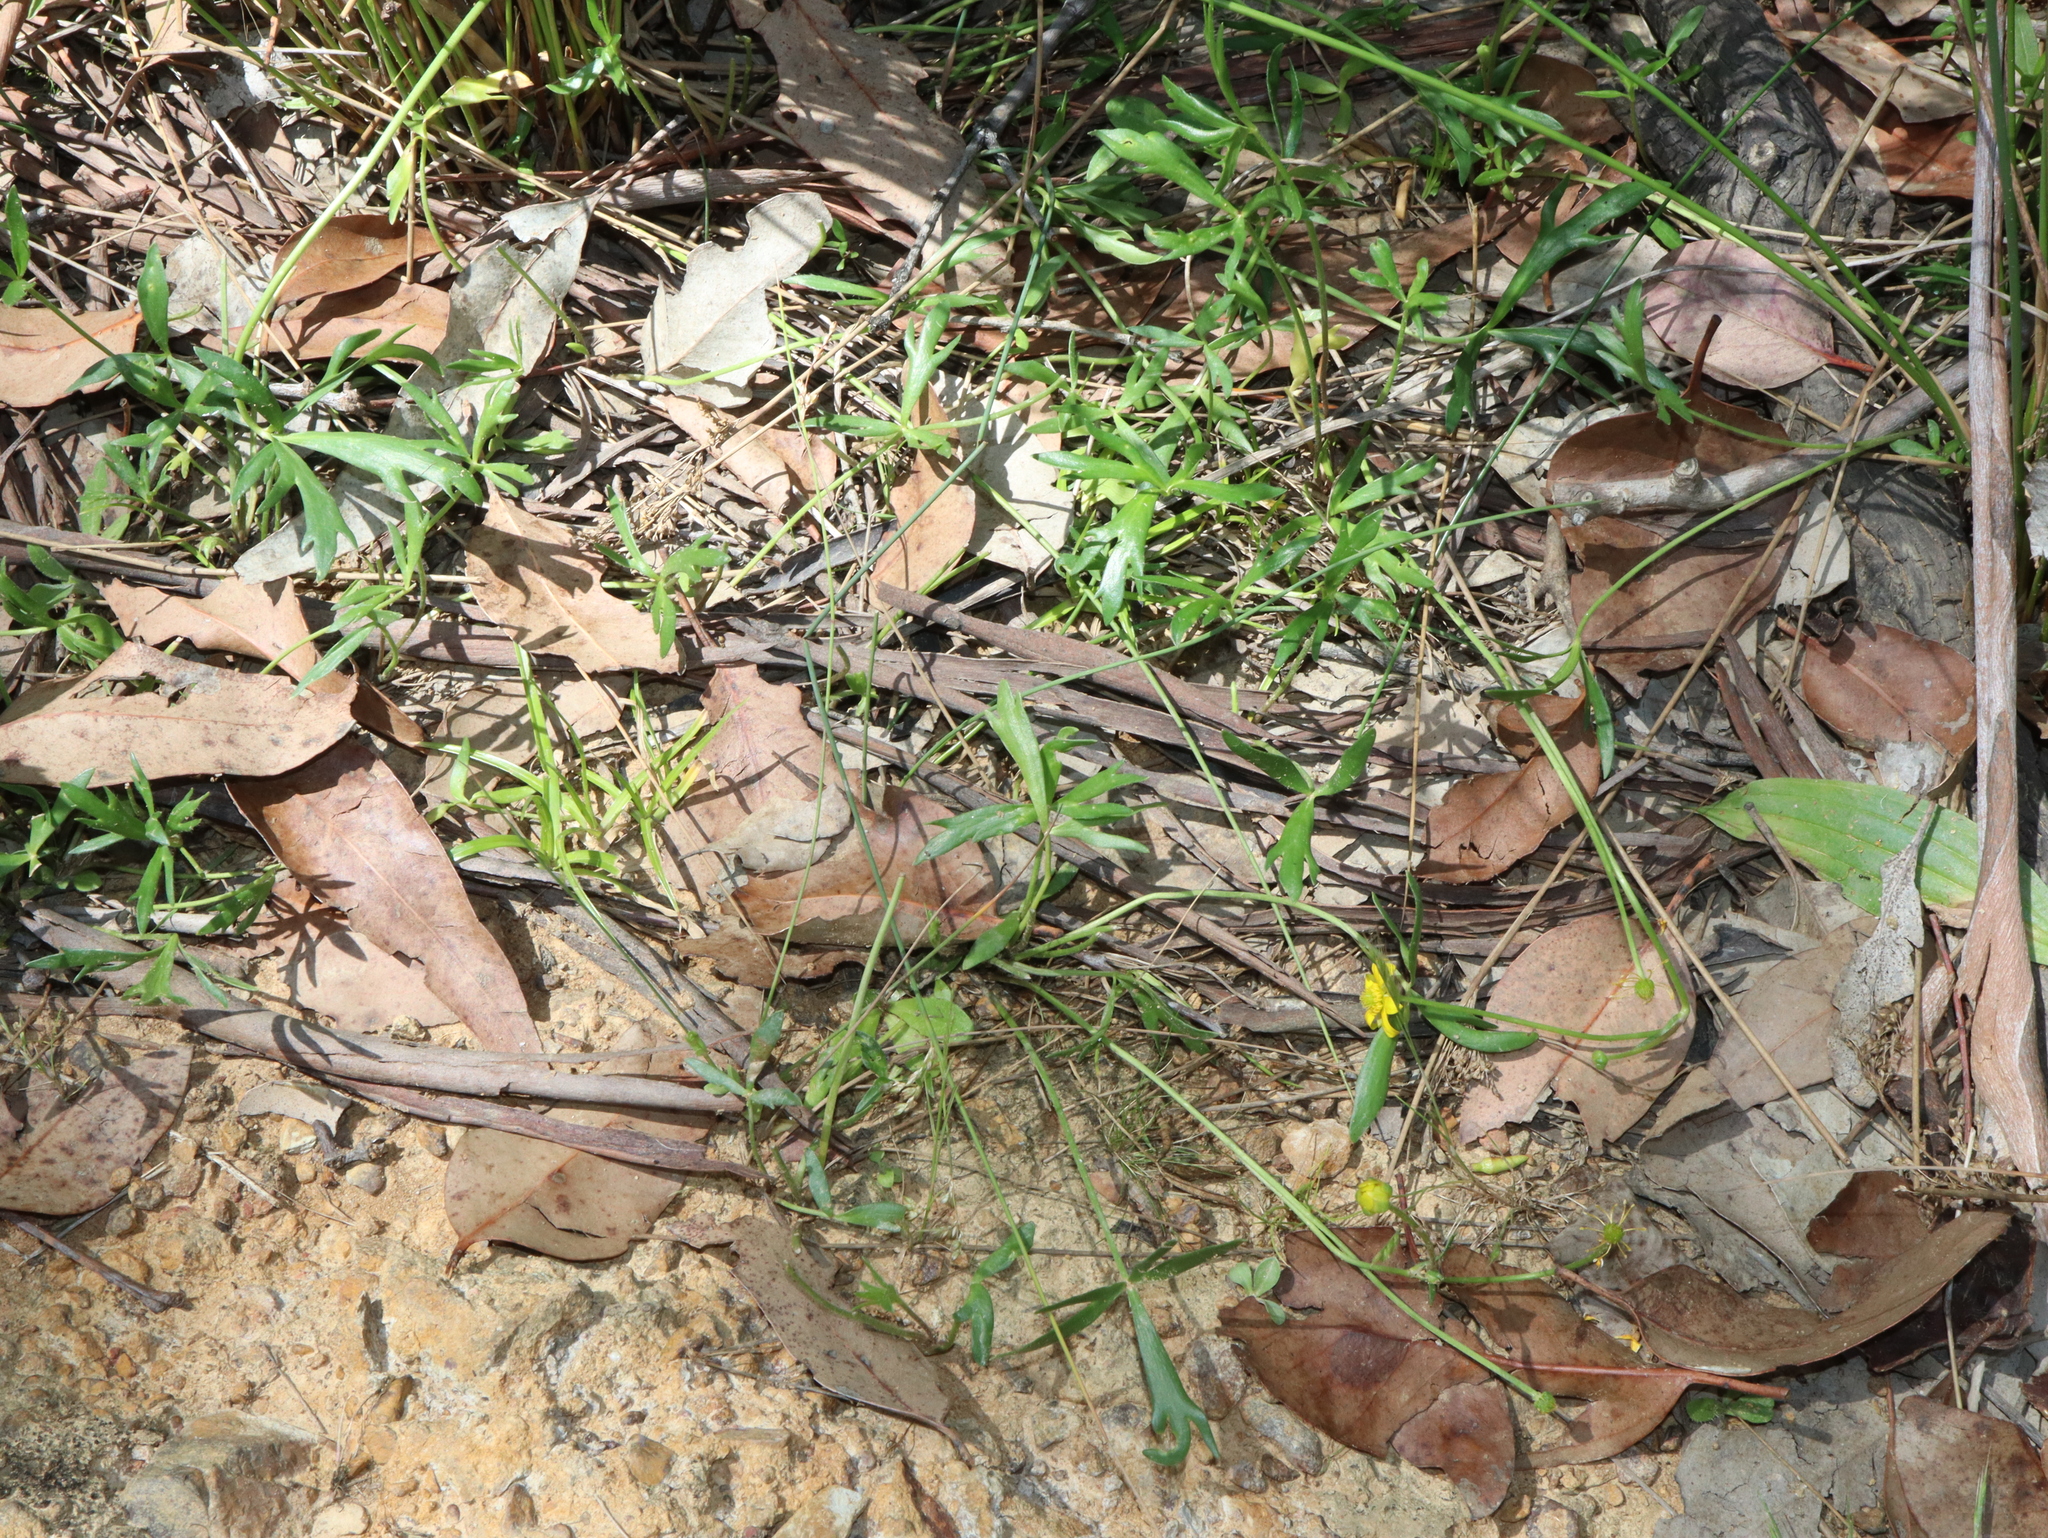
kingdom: Plantae
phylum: Tracheophyta
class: Magnoliopsida
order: Ranunculales
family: Ranunculaceae
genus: Ranunculus
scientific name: Ranunculus papulentus
